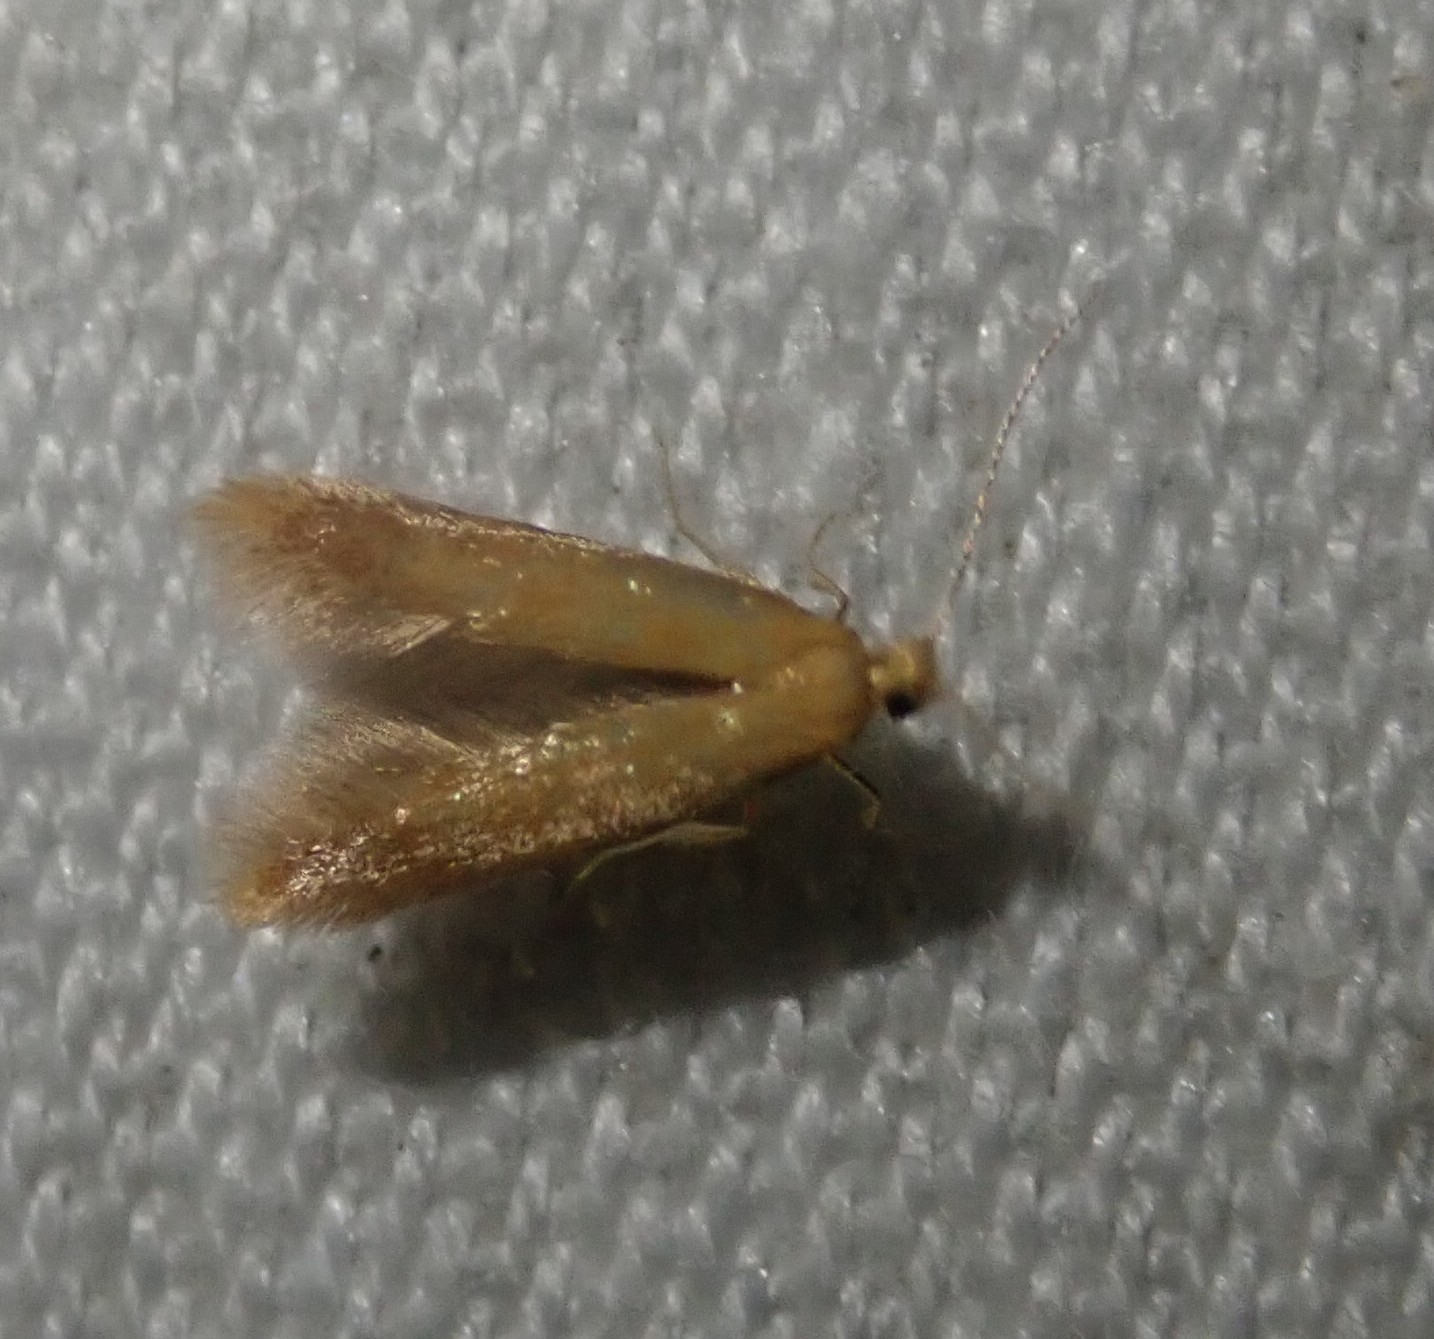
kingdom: Animalia
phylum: Arthropoda
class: Insecta
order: Lepidoptera
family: Oecophoridae
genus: Borkhausenia
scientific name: Borkhausenia Crassa unitella
